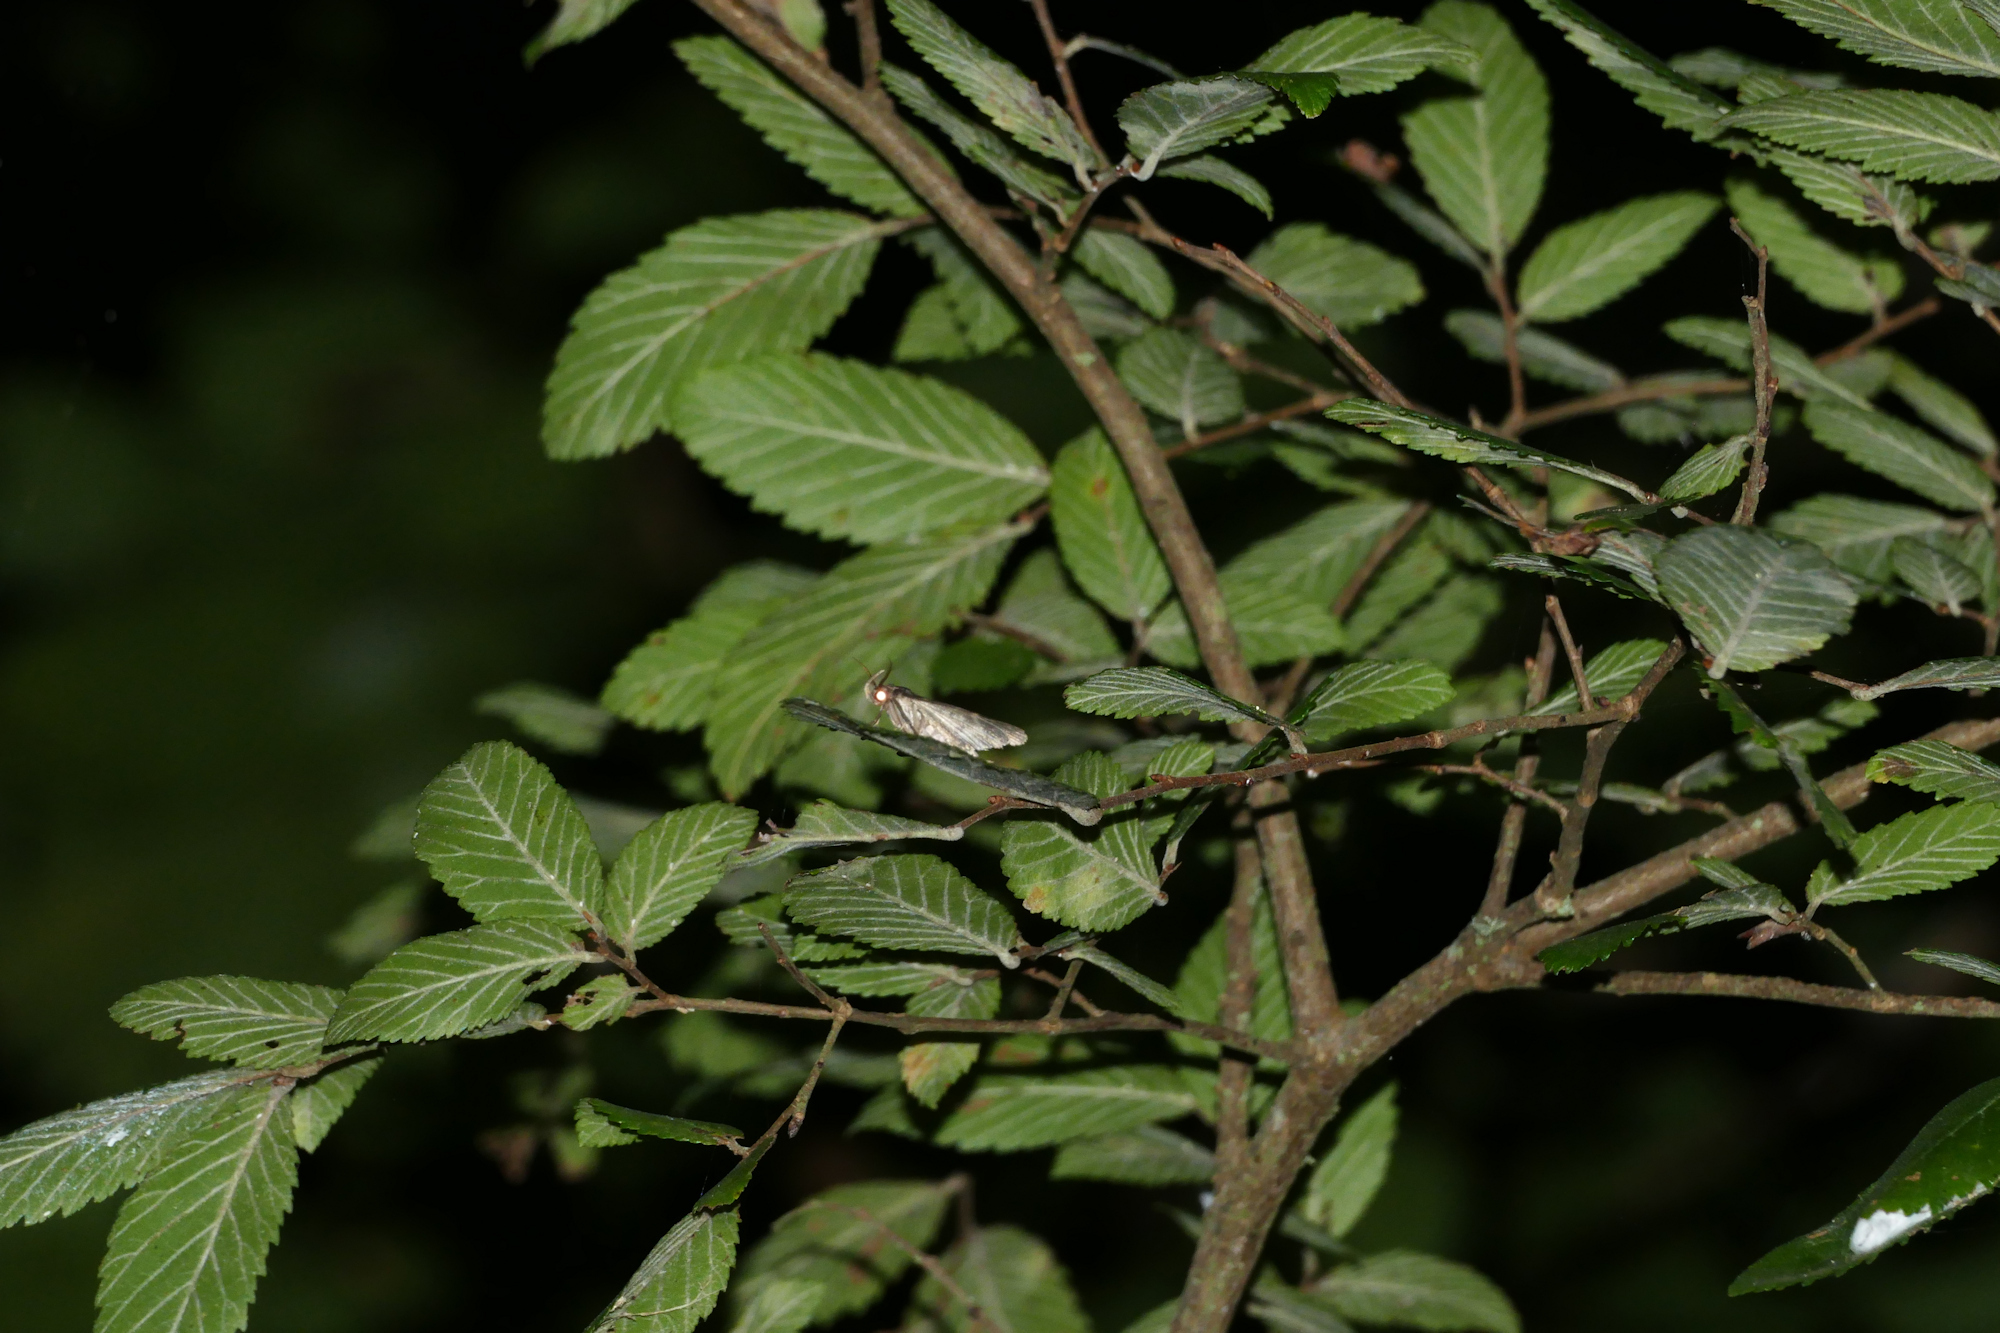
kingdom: Plantae
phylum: Tracheophyta
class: Magnoliopsida
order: Rosales
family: Ulmaceae
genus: Ulmus
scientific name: Ulmus crassifolia
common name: Basket elm
